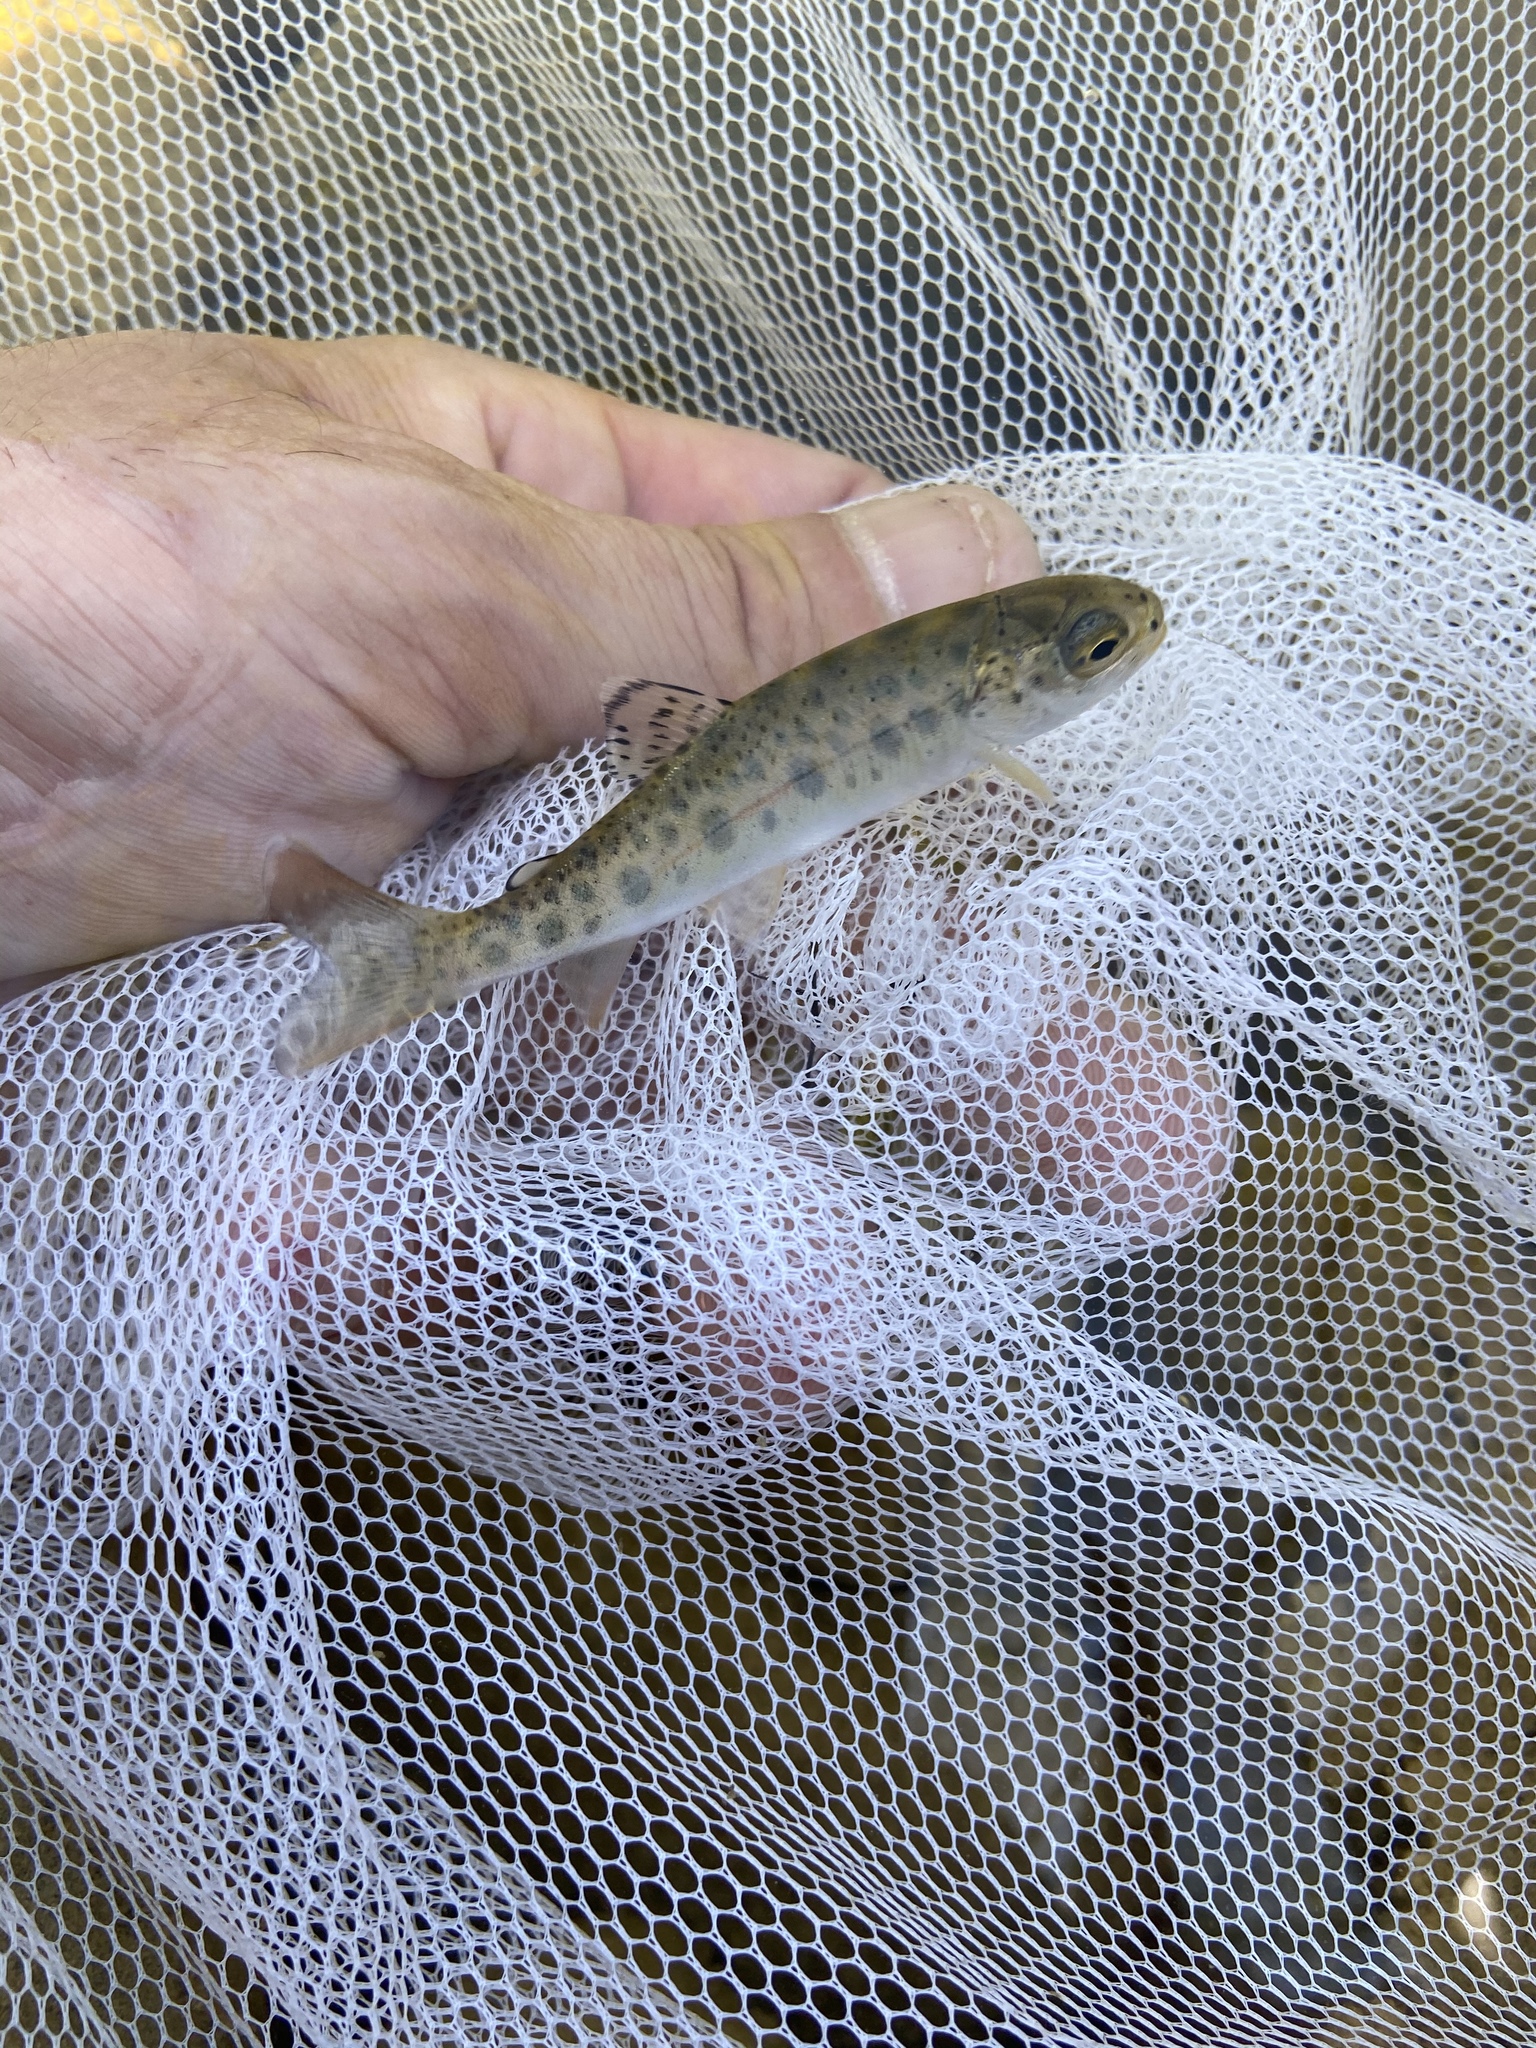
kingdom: Animalia
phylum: Chordata
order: Salmoniformes
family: Salmonidae
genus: Oncorhynchus
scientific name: Oncorhynchus mykiss
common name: Rainbow trout
